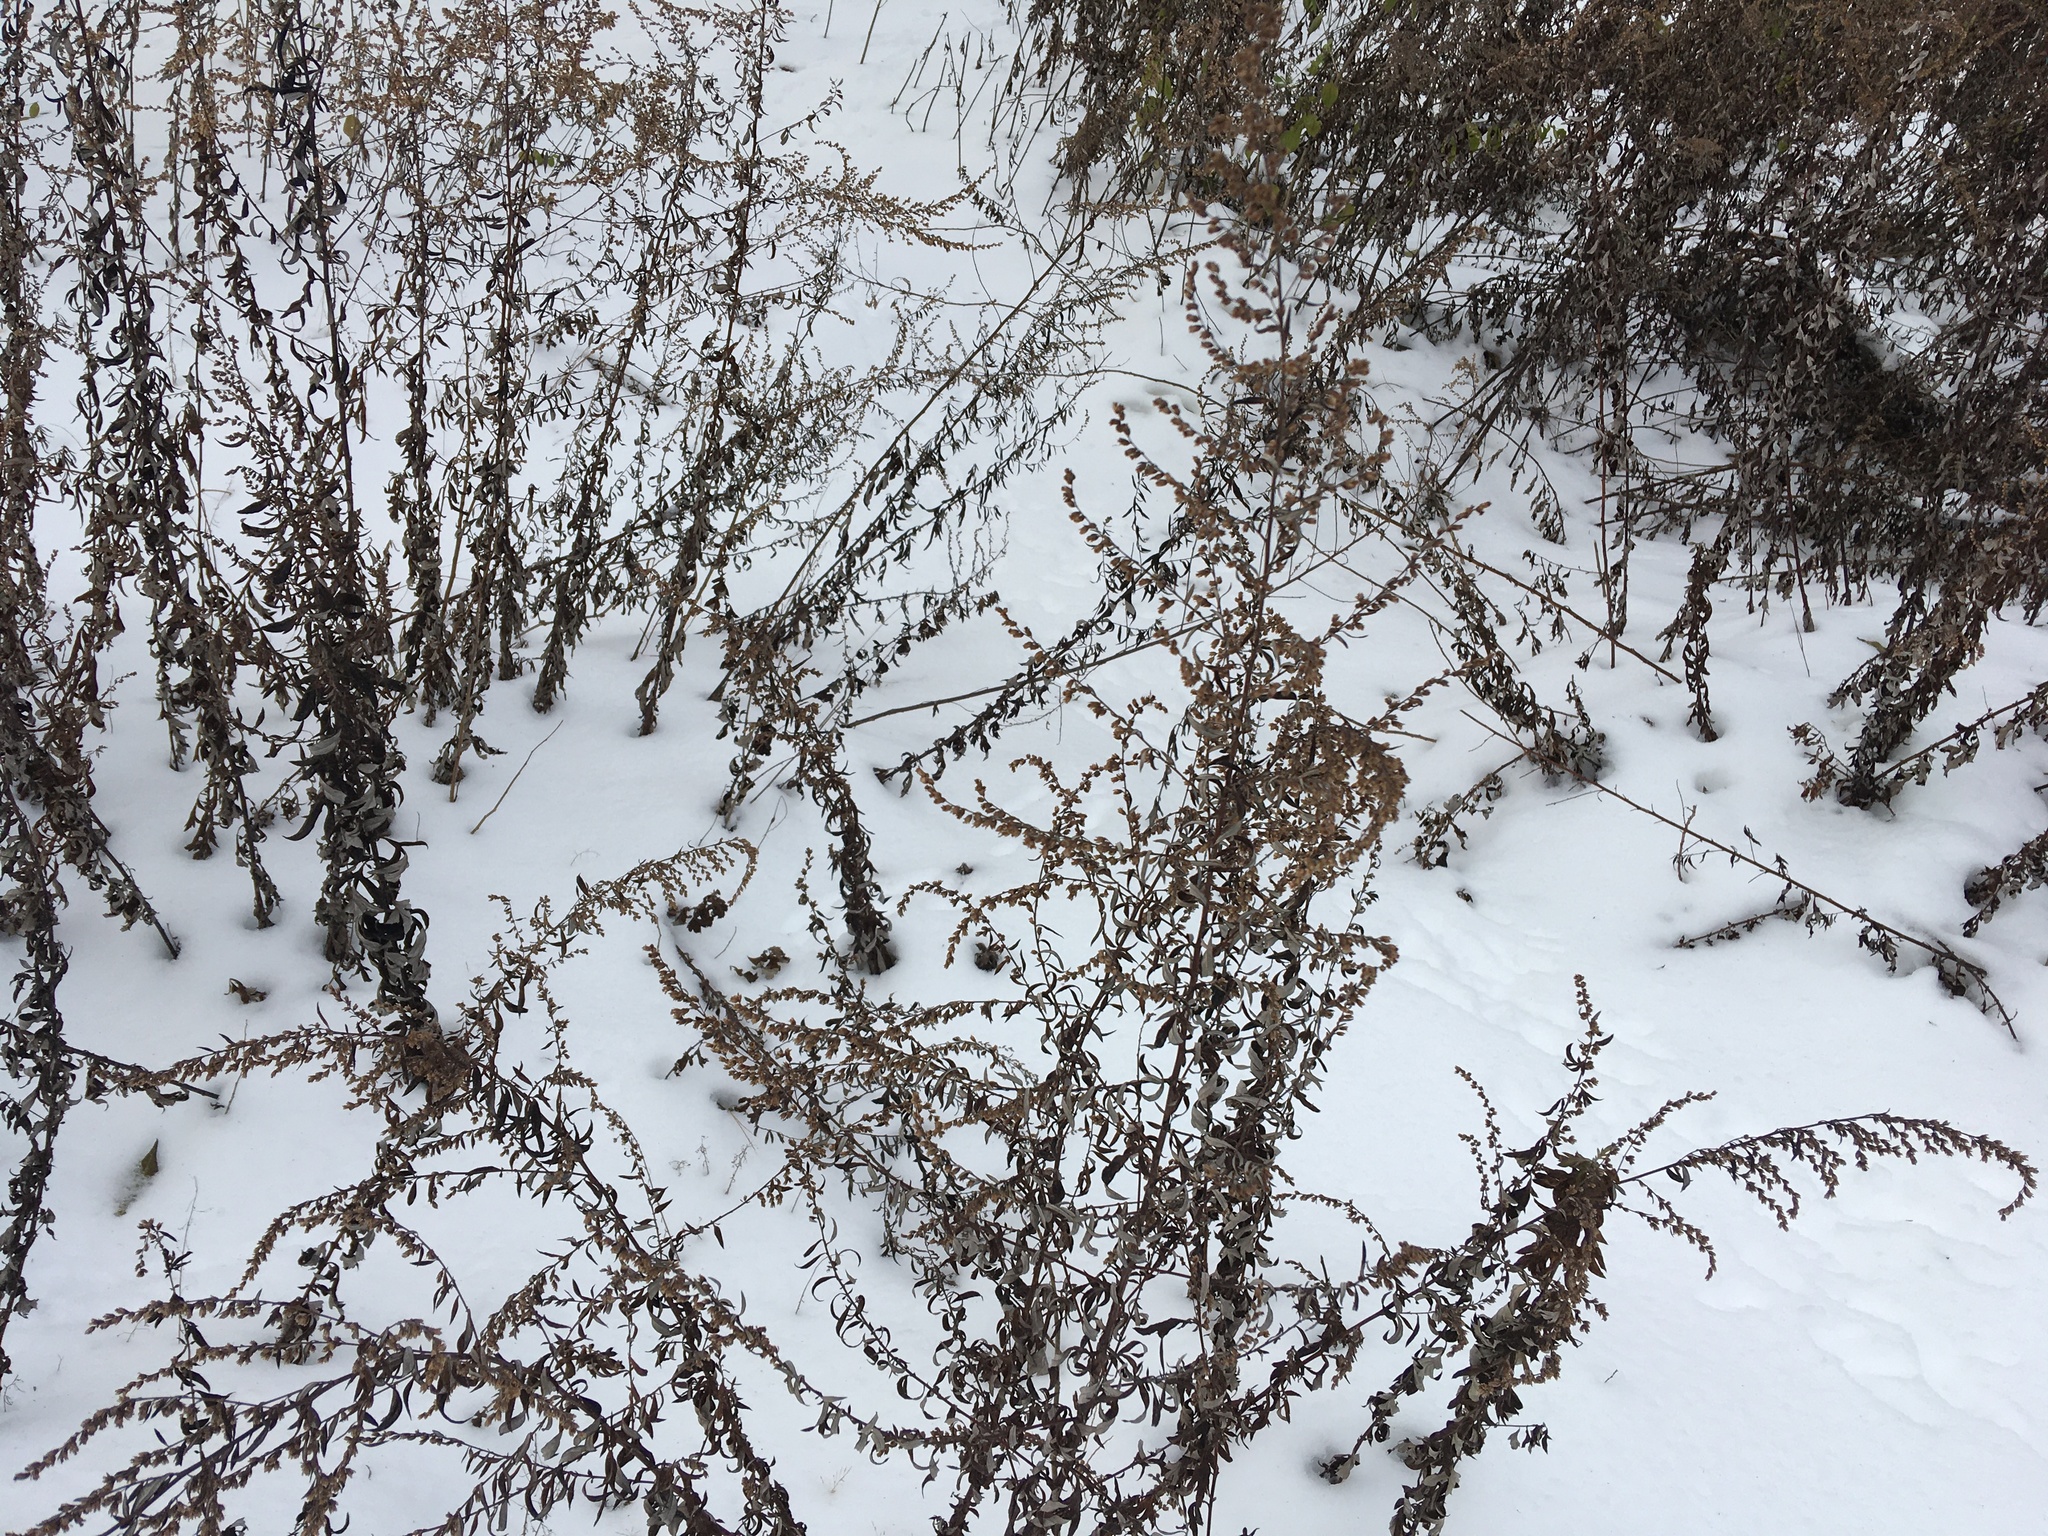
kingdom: Plantae
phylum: Tracheophyta
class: Magnoliopsida
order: Asterales
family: Asteraceae
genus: Artemisia
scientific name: Artemisia vulgaris
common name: Mugwort
